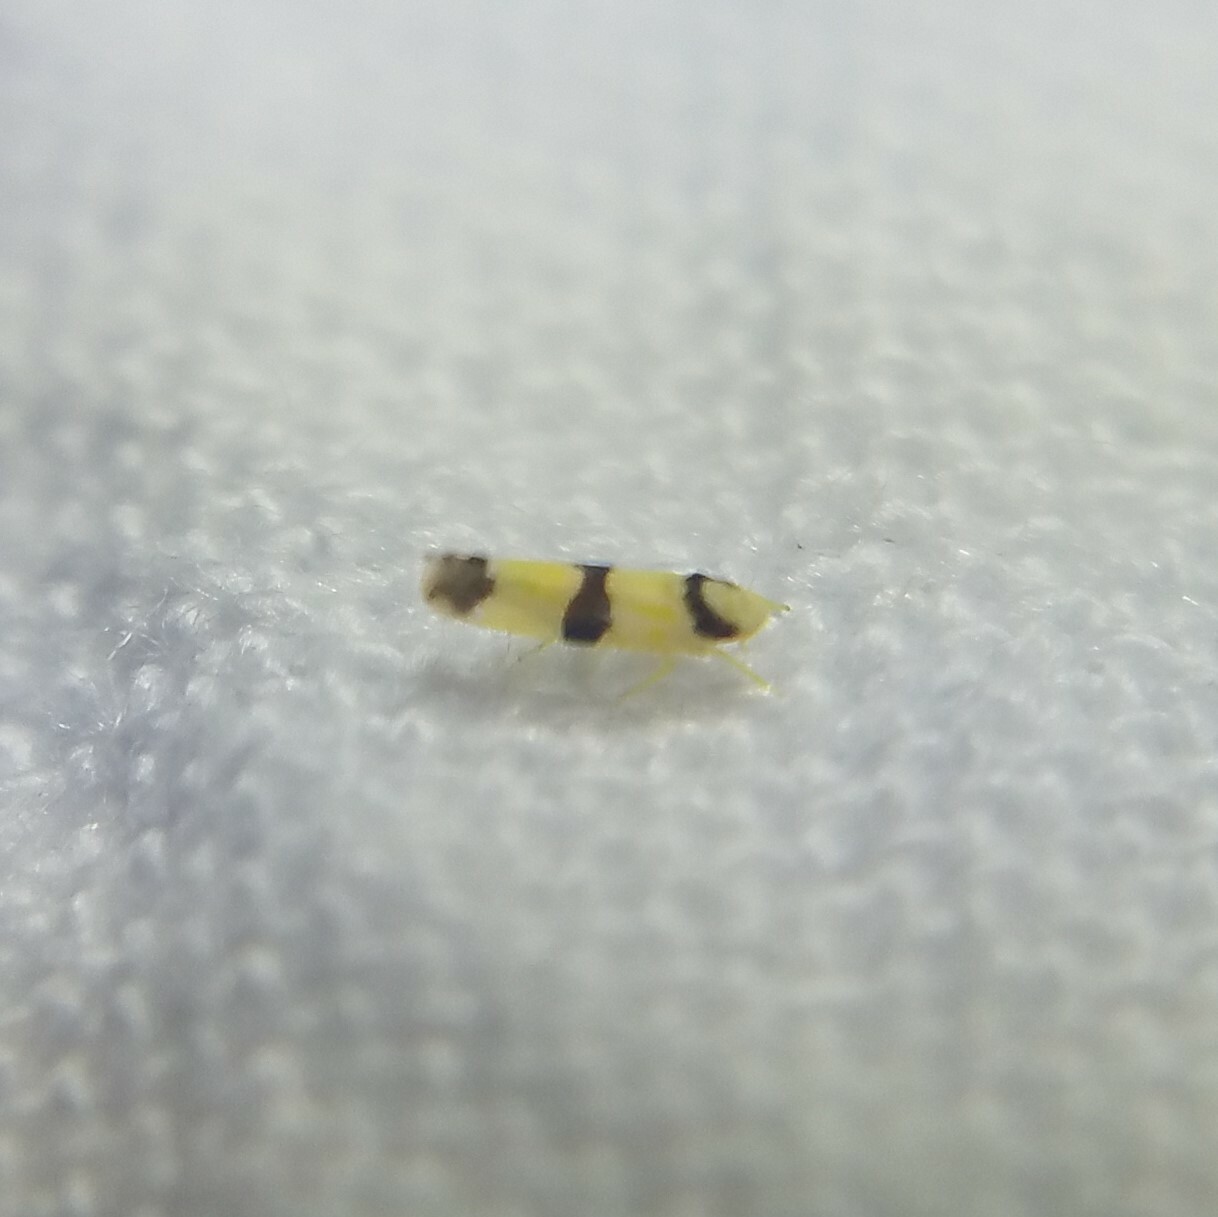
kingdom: Animalia
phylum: Arthropoda
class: Insecta
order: Hemiptera
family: Cicadellidae
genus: Erythroneura
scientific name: Erythroneura calycula
